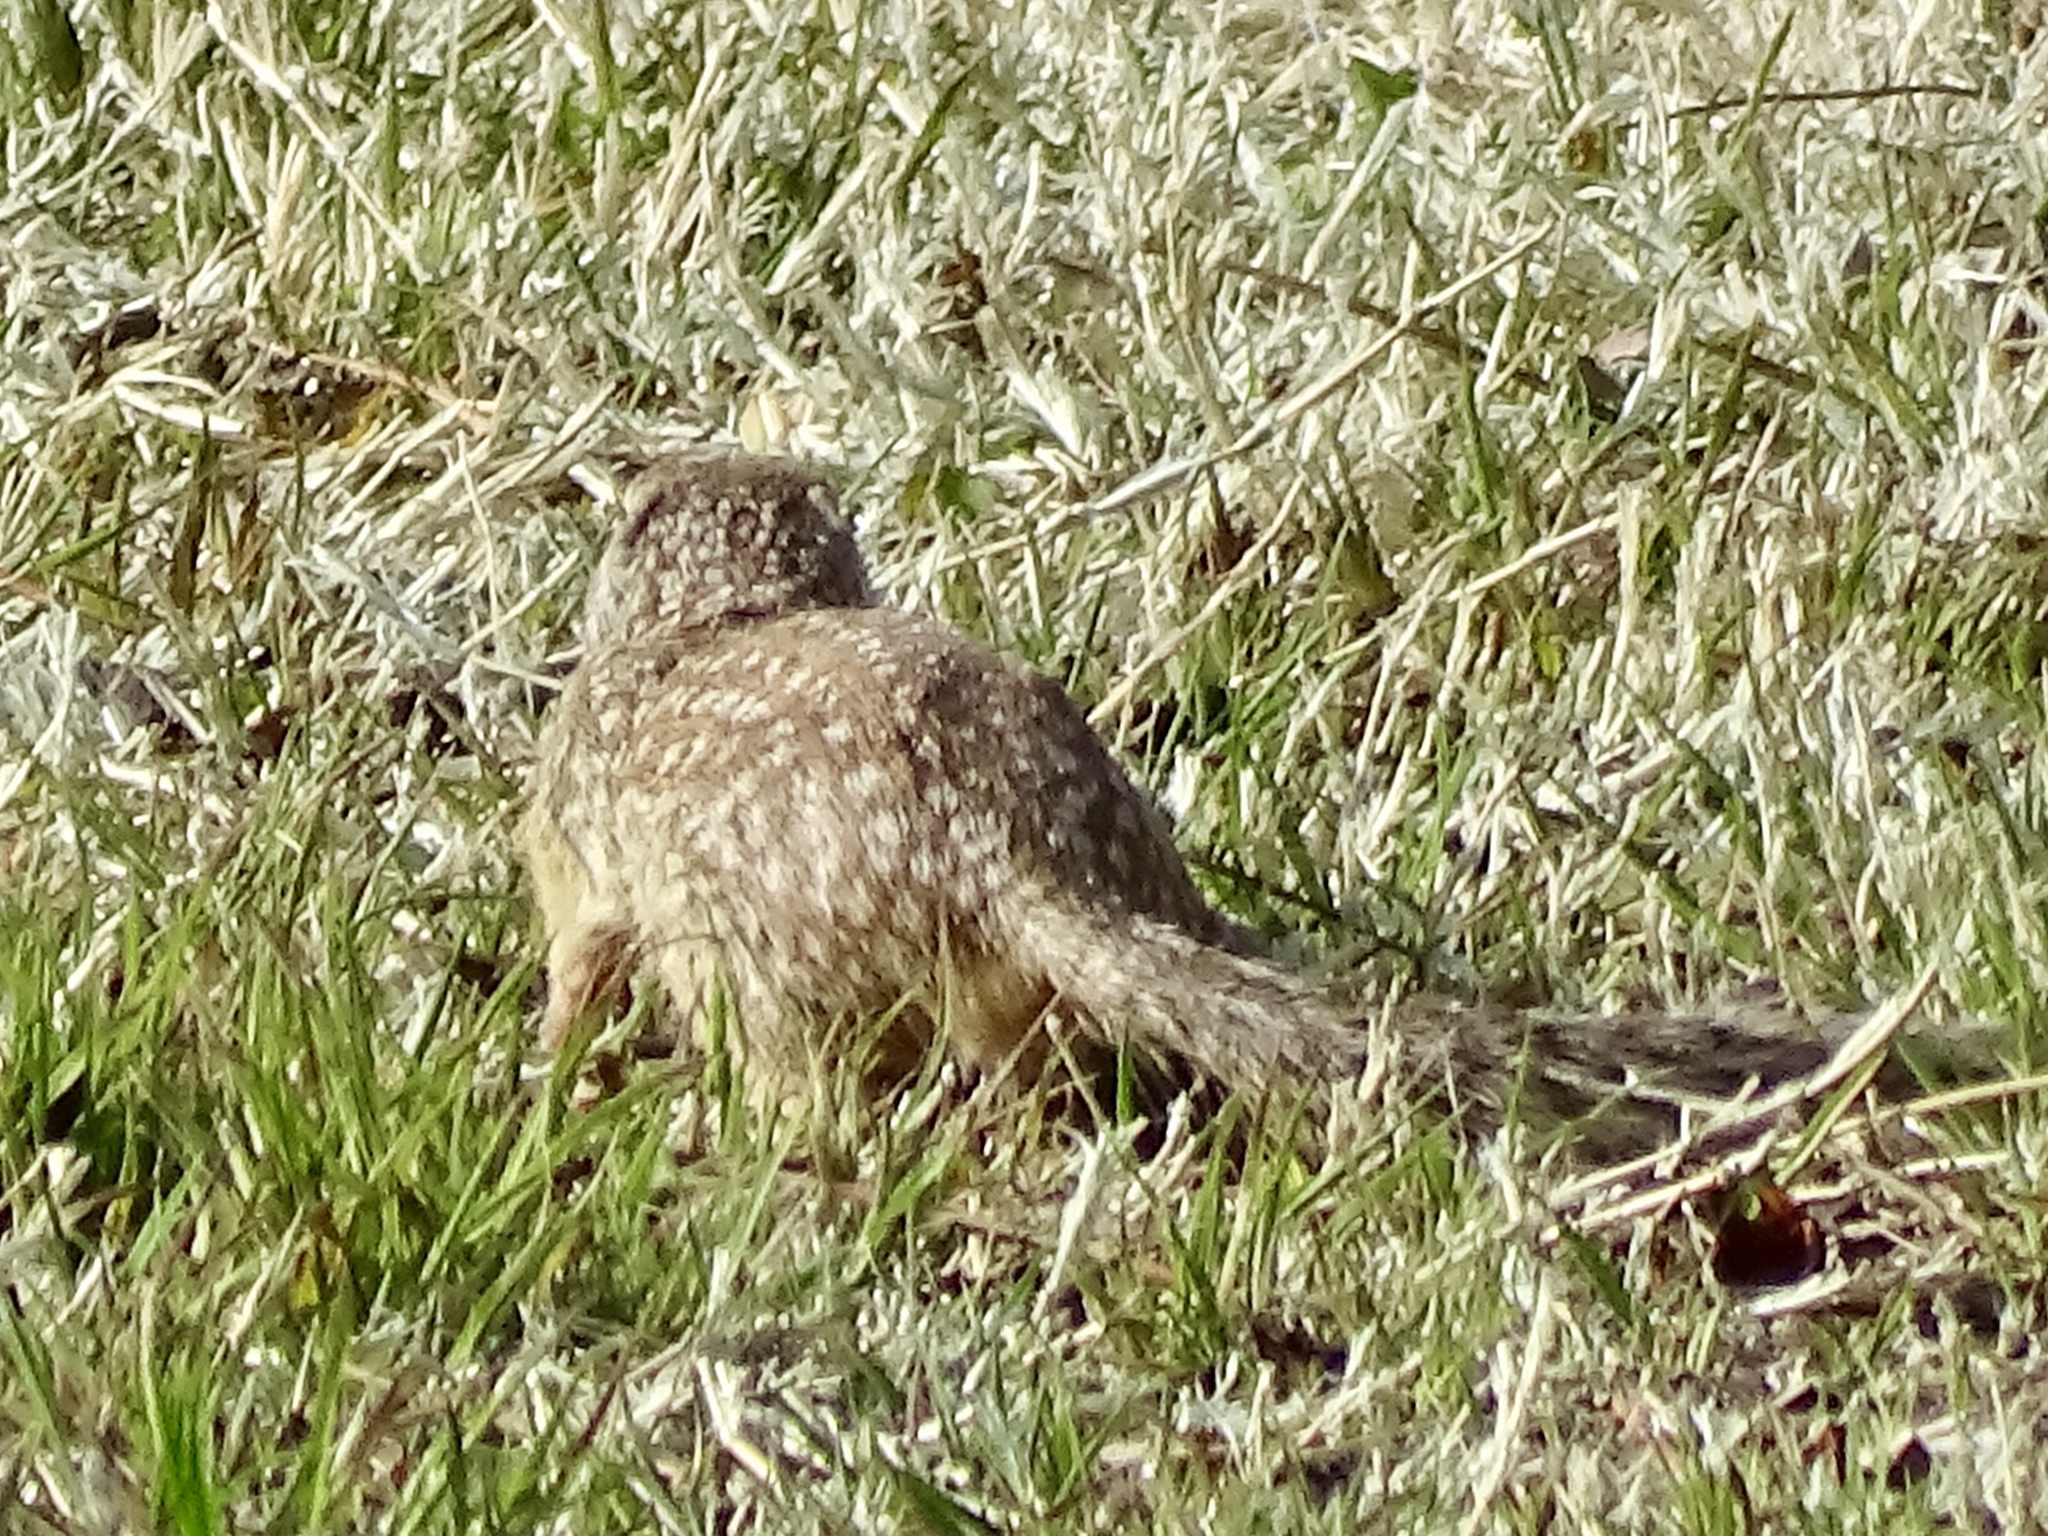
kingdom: Animalia
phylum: Chordata
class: Mammalia
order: Rodentia
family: Sciuridae
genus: Ictidomys
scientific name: Ictidomys parvidens
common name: Rio grande ground squirrel
